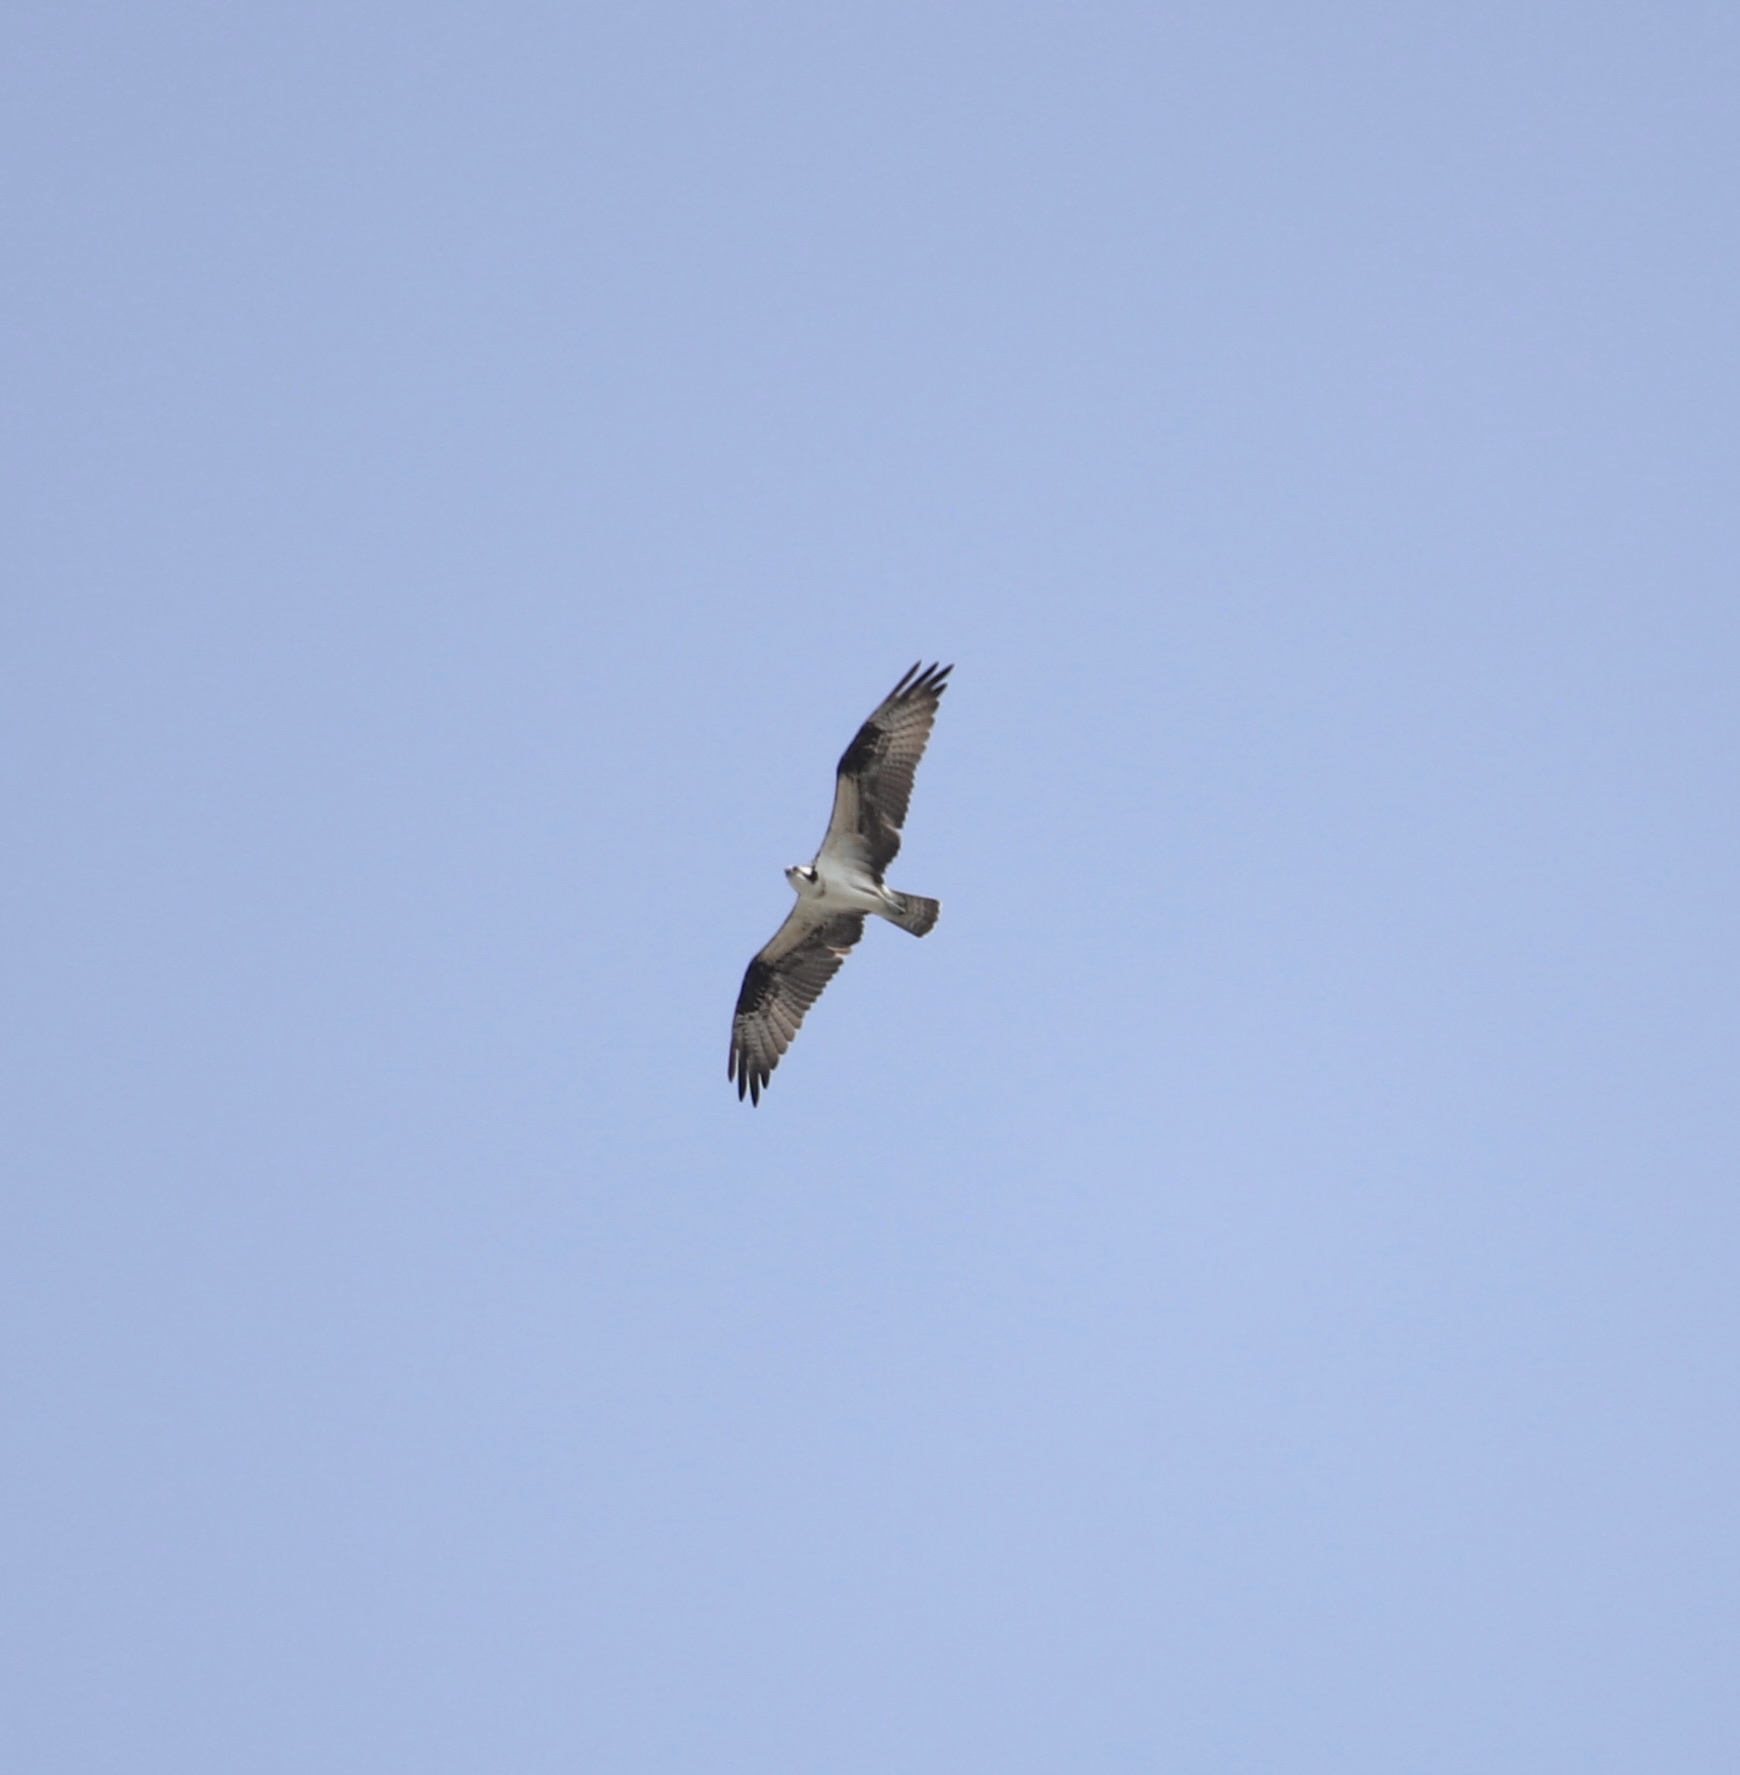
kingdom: Animalia
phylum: Chordata
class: Aves
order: Accipitriformes
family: Pandionidae
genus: Pandion
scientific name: Pandion haliaetus
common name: Osprey
